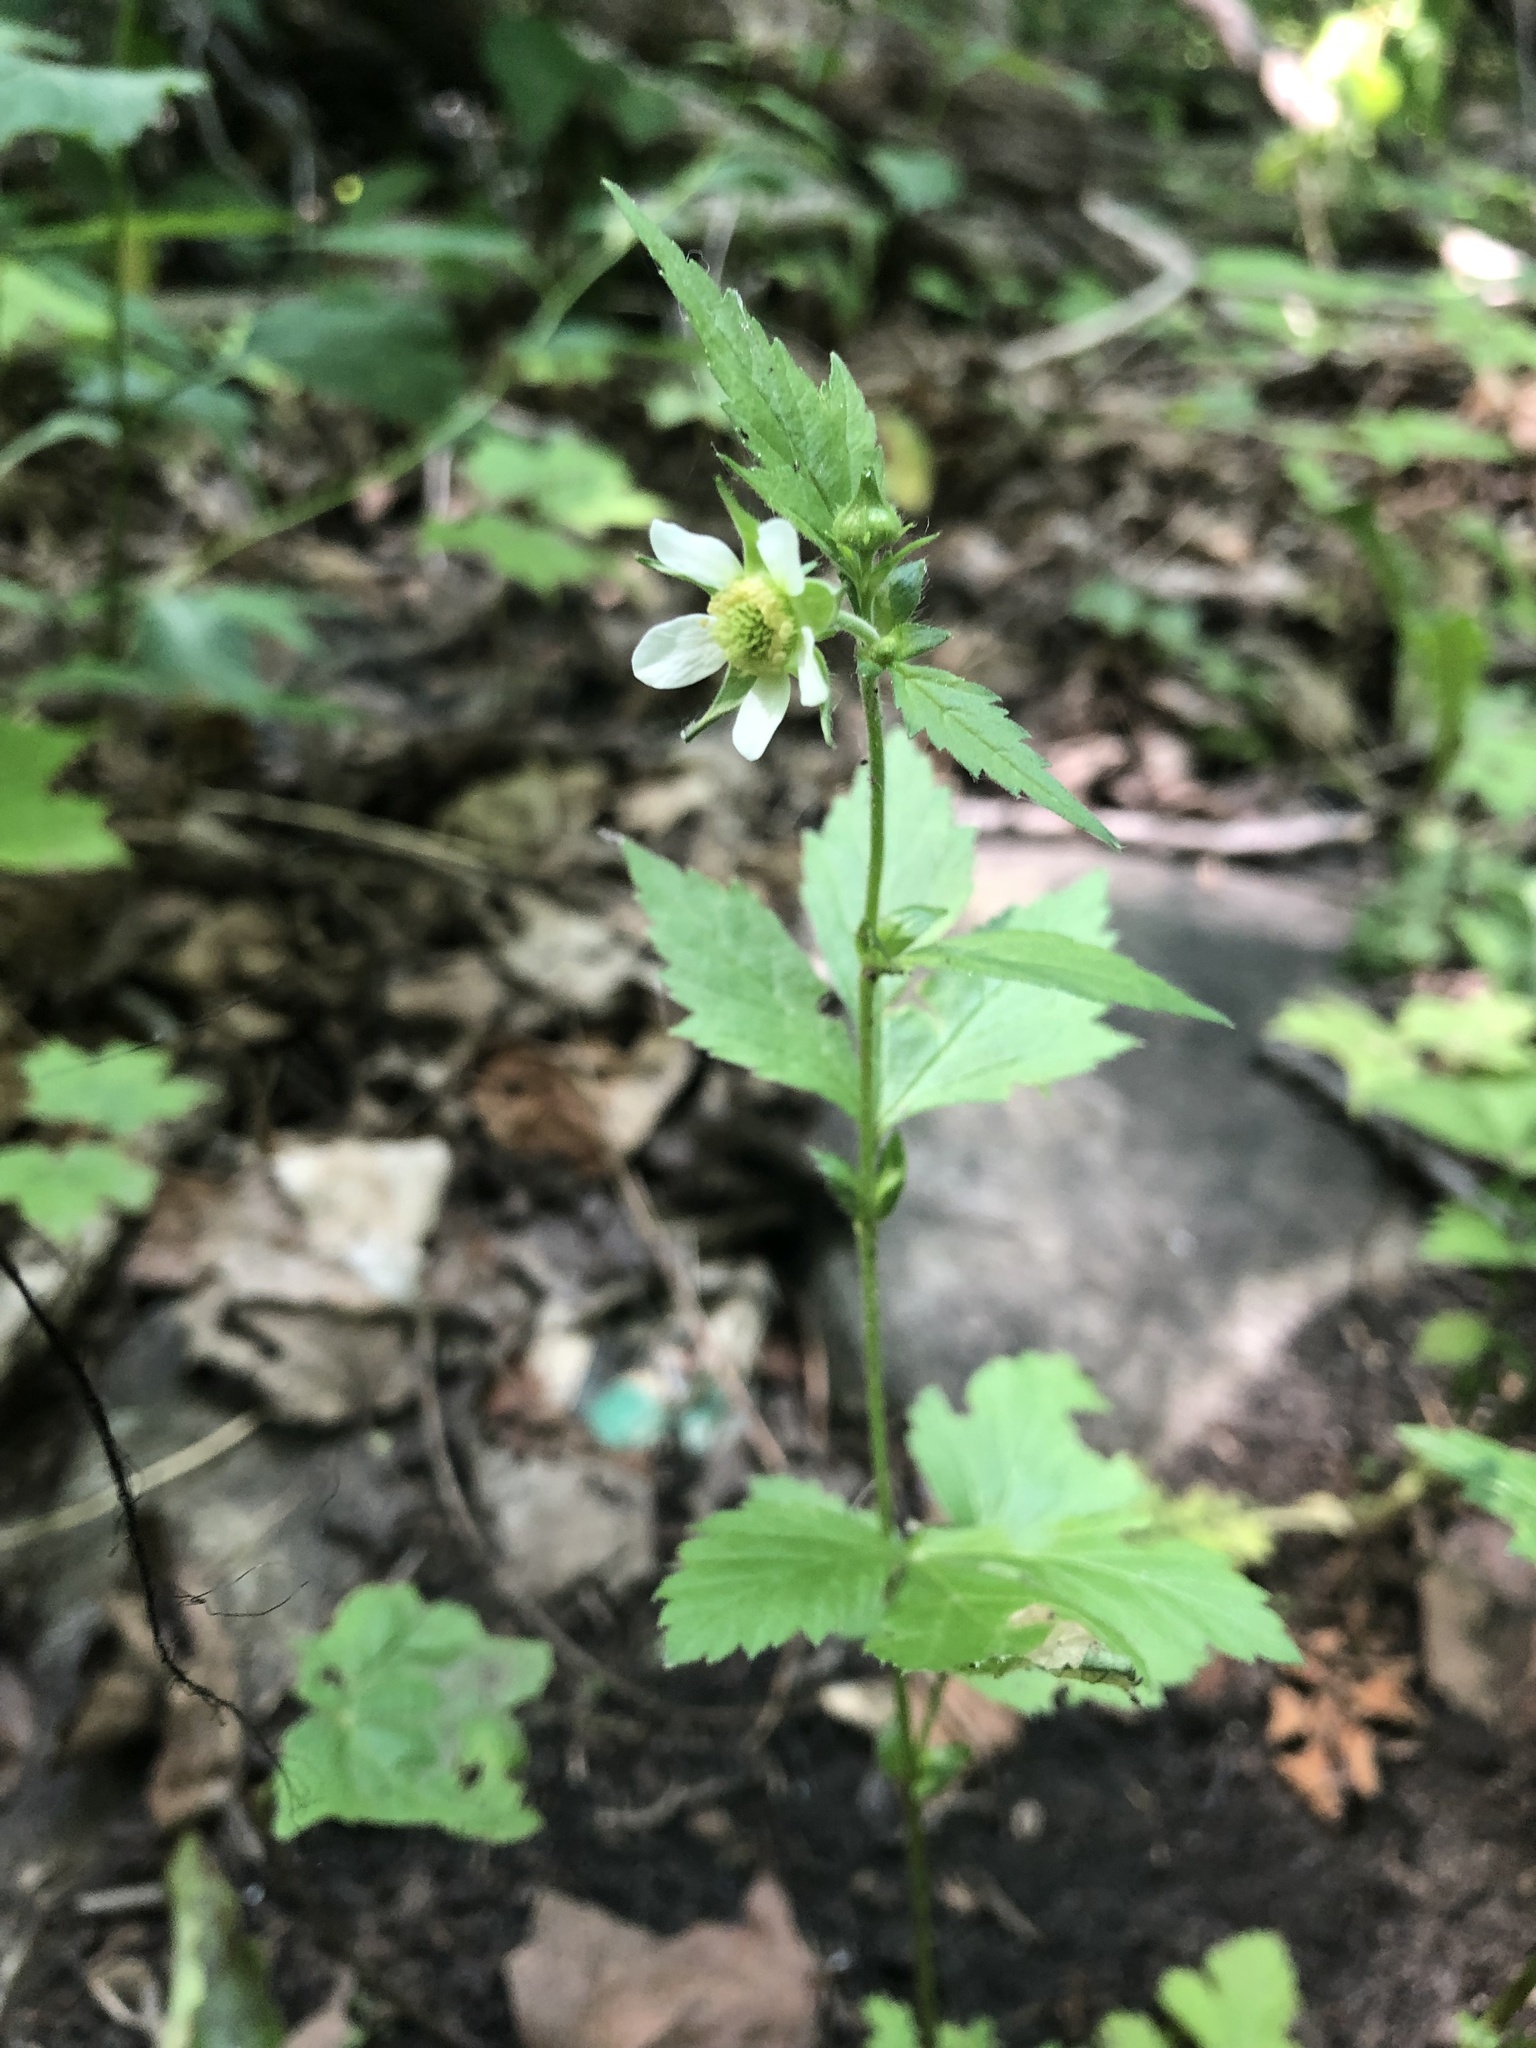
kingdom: Plantae
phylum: Tracheophyta
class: Magnoliopsida
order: Rosales
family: Rosaceae
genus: Geum
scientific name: Geum canadense
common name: White avens
